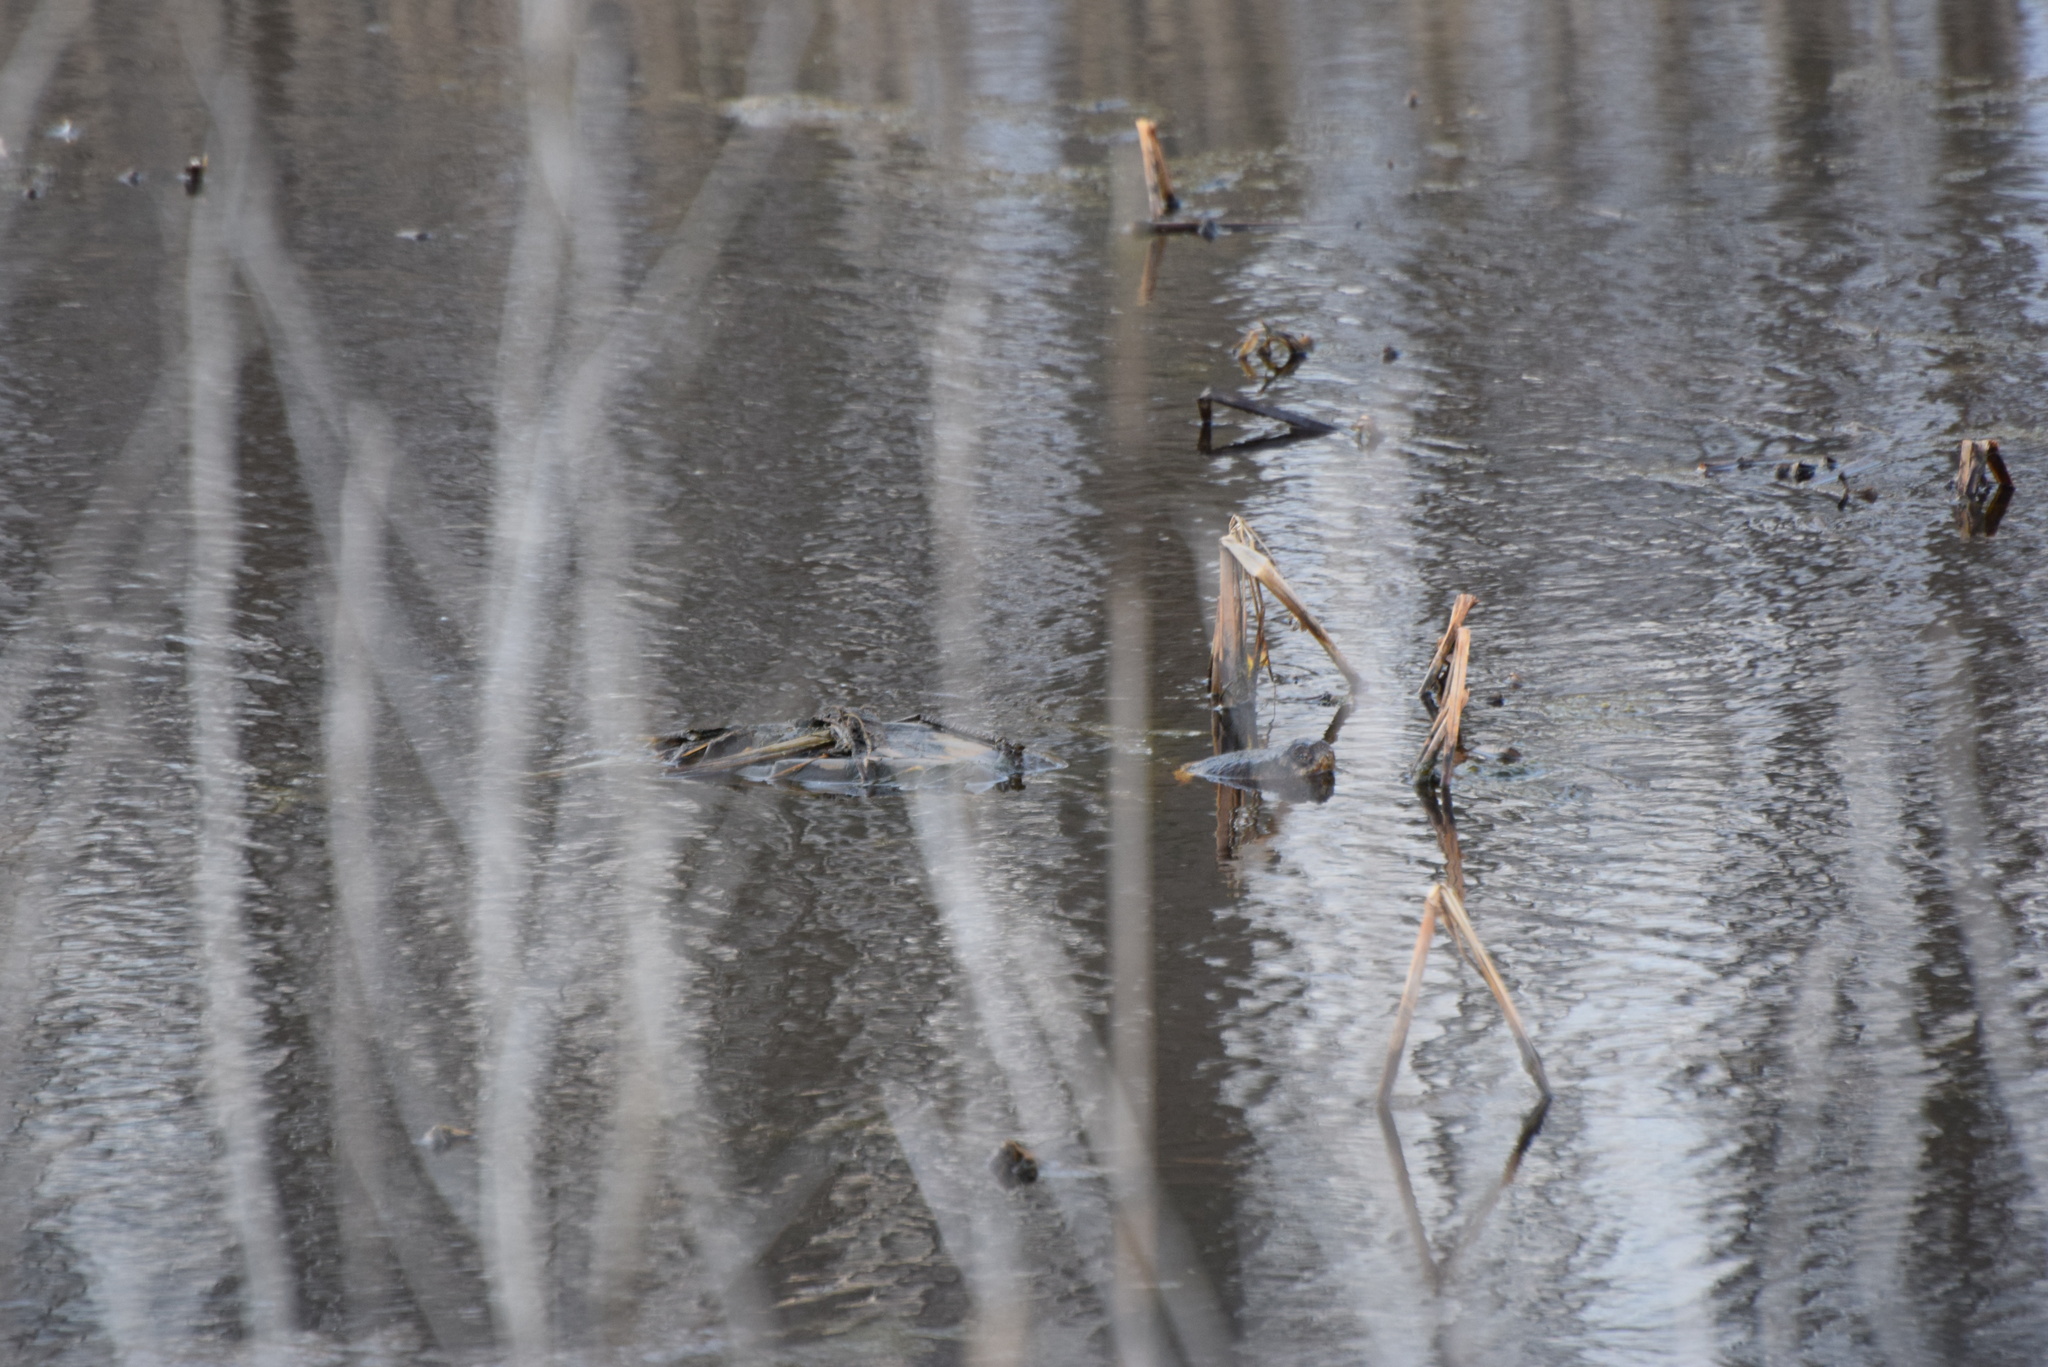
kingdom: Animalia
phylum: Chordata
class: Testudines
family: Chelydridae
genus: Chelydra
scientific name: Chelydra serpentina
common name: Common snapping turtle
